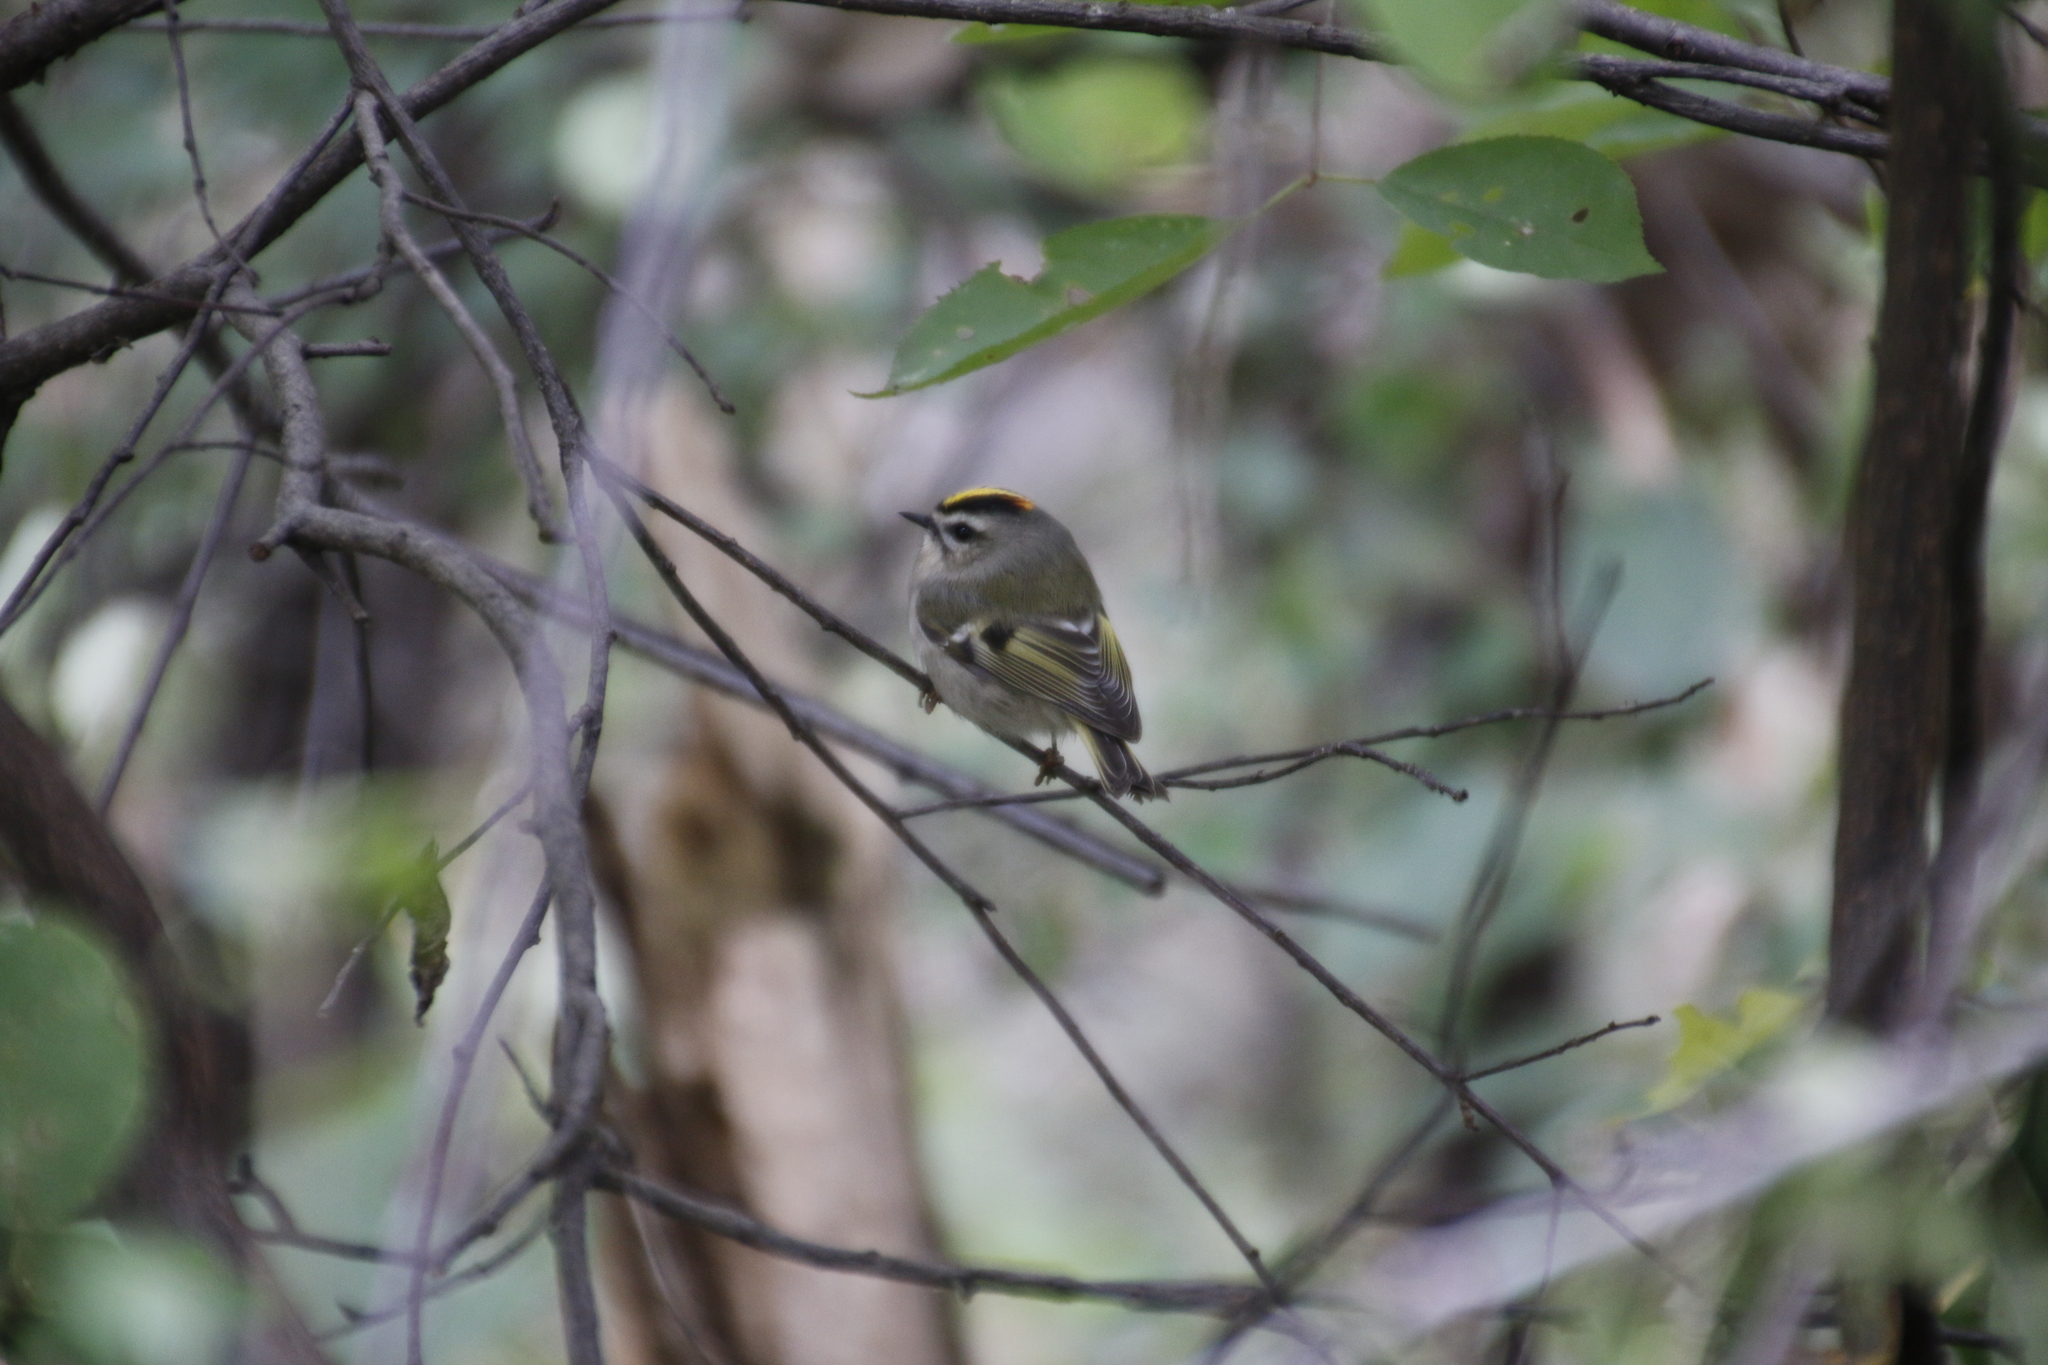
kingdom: Animalia
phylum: Chordata
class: Aves
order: Passeriformes
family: Regulidae
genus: Regulus
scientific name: Regulus satrapa
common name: Golden-crowned kinglet
